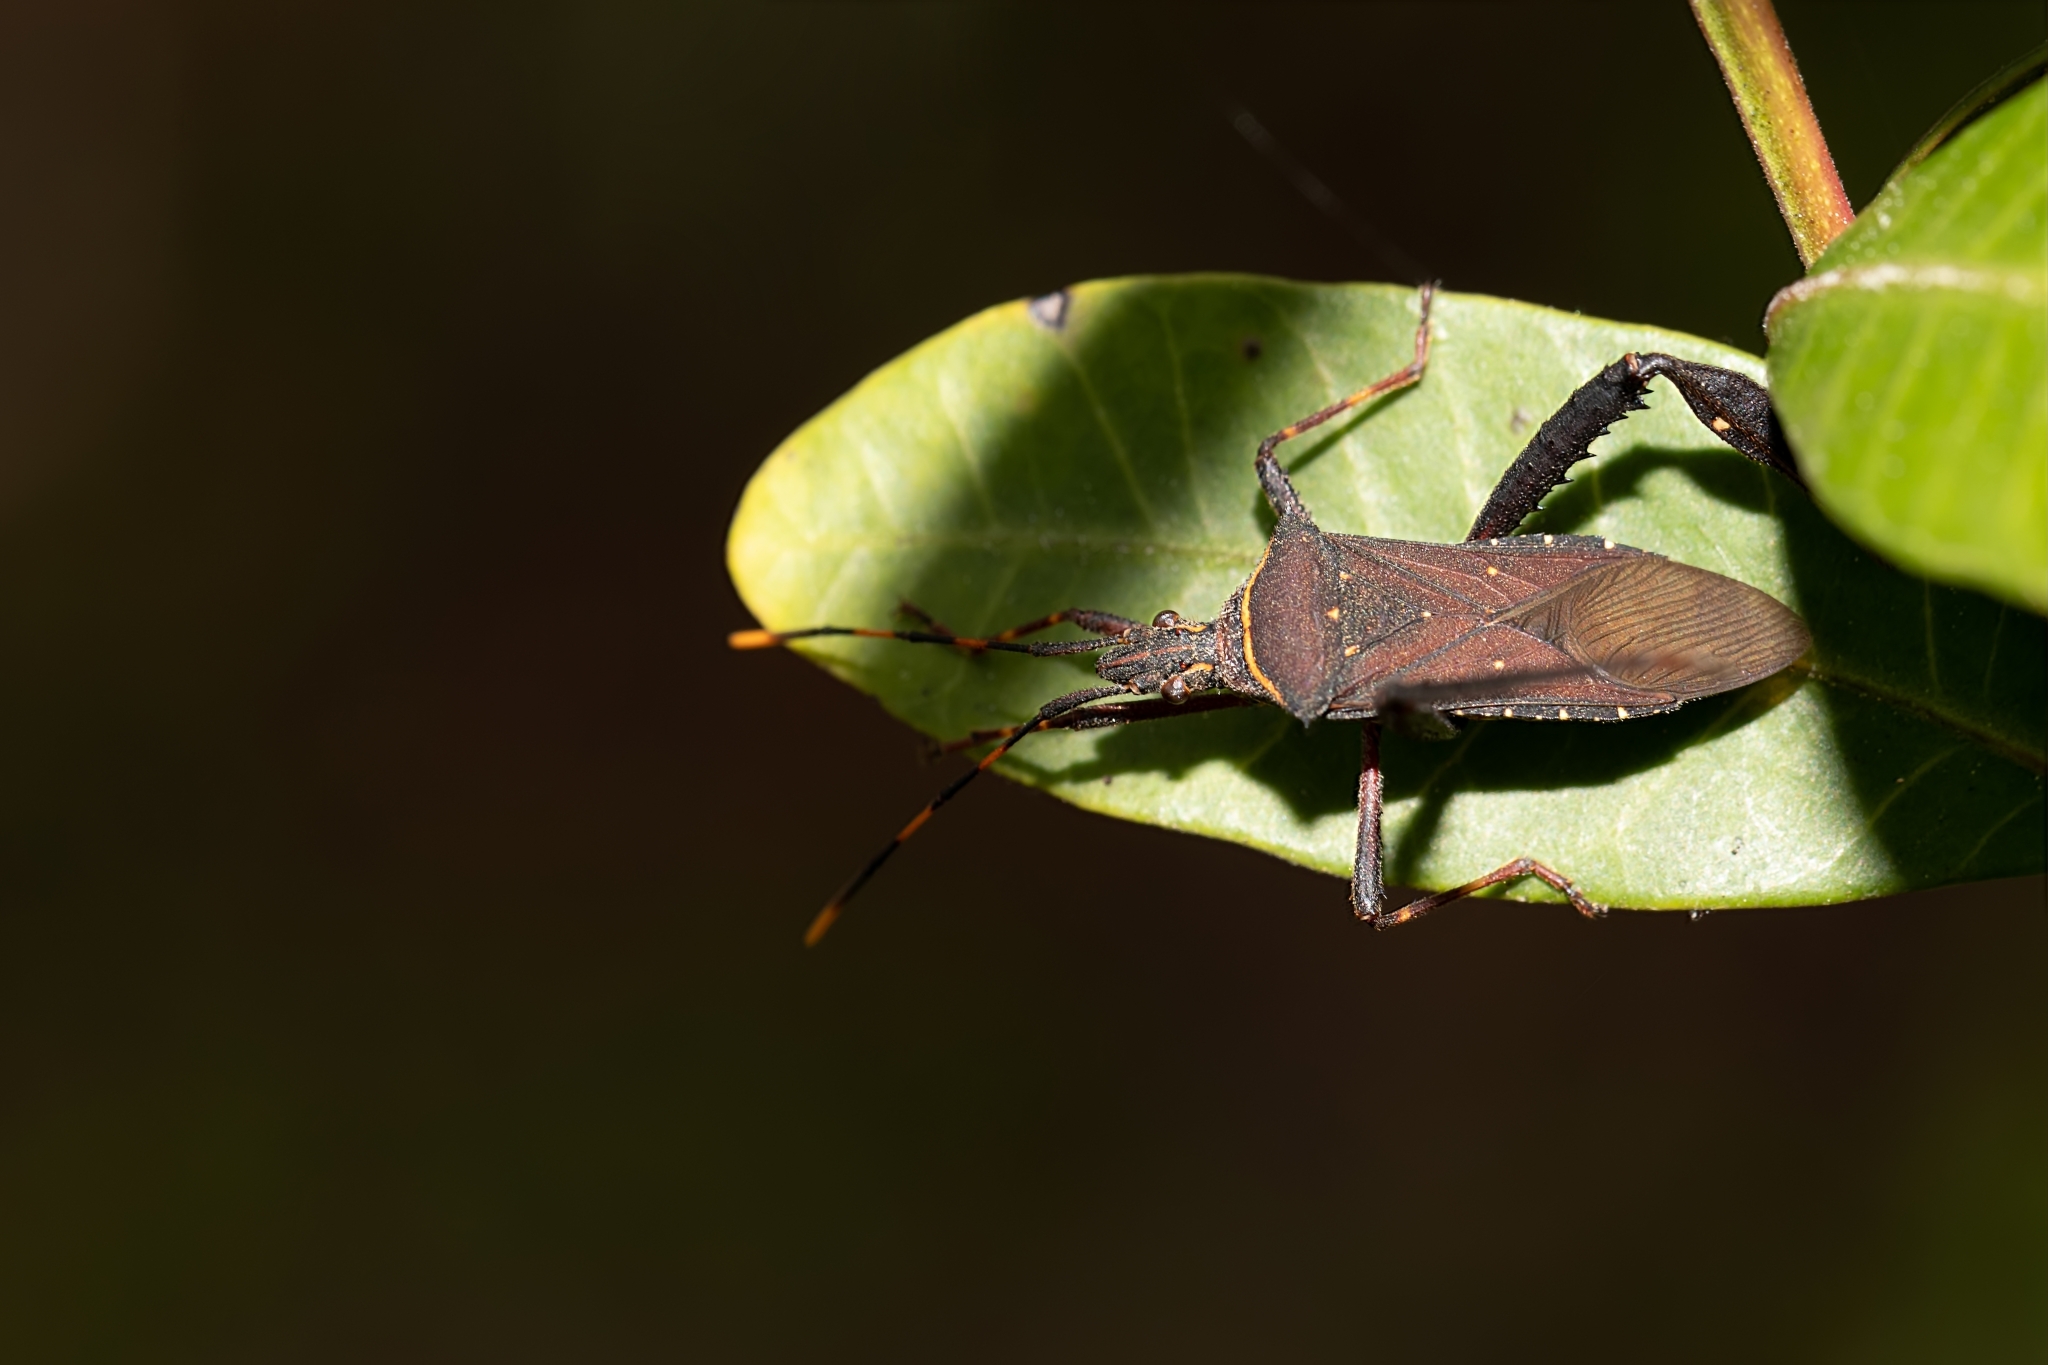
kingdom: Animalia
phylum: Arthropoda
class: Insecta
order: Hemiptera
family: Coreidae
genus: Leptoglossus
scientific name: Leptoglossus gonagra
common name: Citron bug
